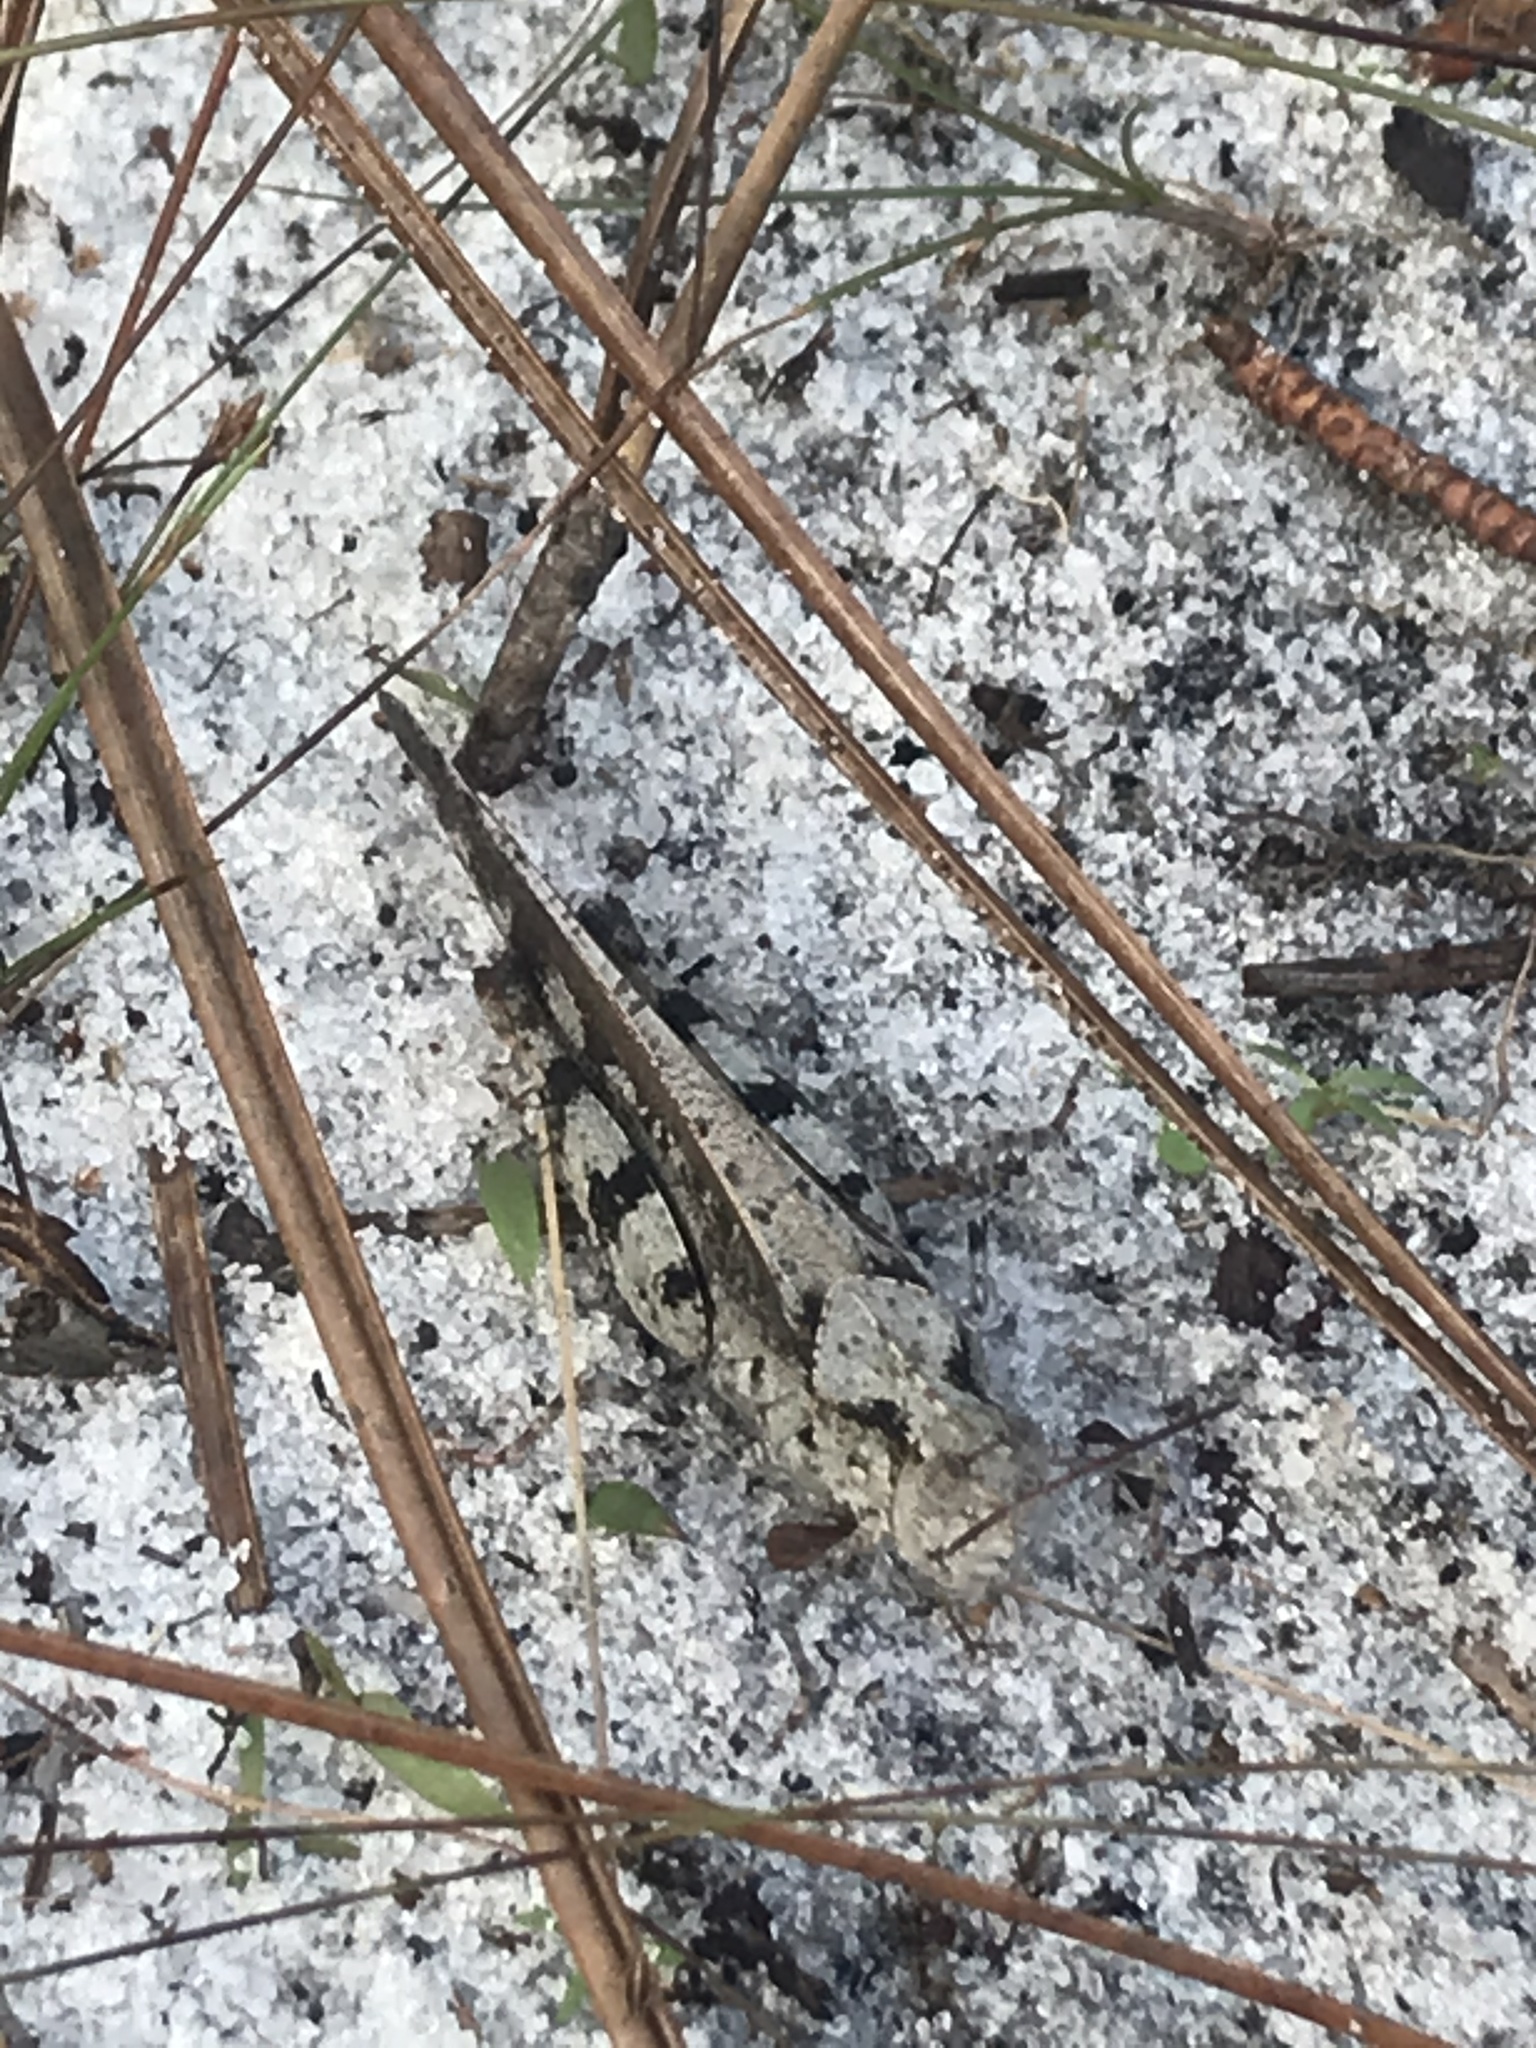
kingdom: Animalia
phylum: Arthropoda
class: Insecta
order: Orthoptera
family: Acrididae
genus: Spharagemon
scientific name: Spharagemon marmoratum
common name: Marbled grasshopper
